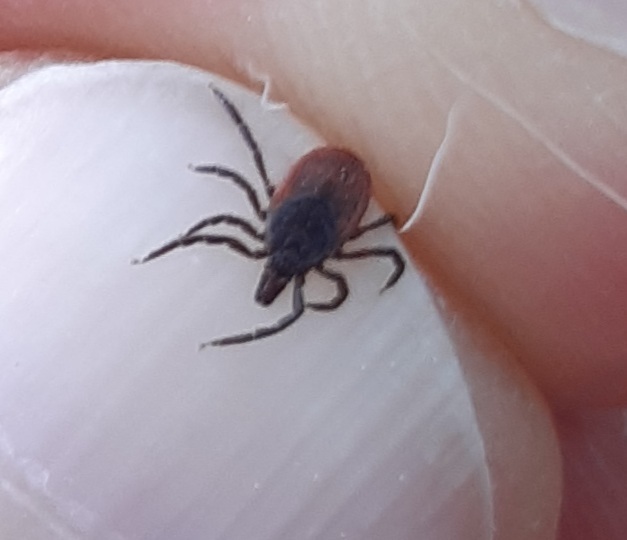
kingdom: Animalia
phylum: Arthropoda
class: Arachnida
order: Ixodida
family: Ixodidae
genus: Ixodes
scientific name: Ixodes ricinus
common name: Castor bean tick
